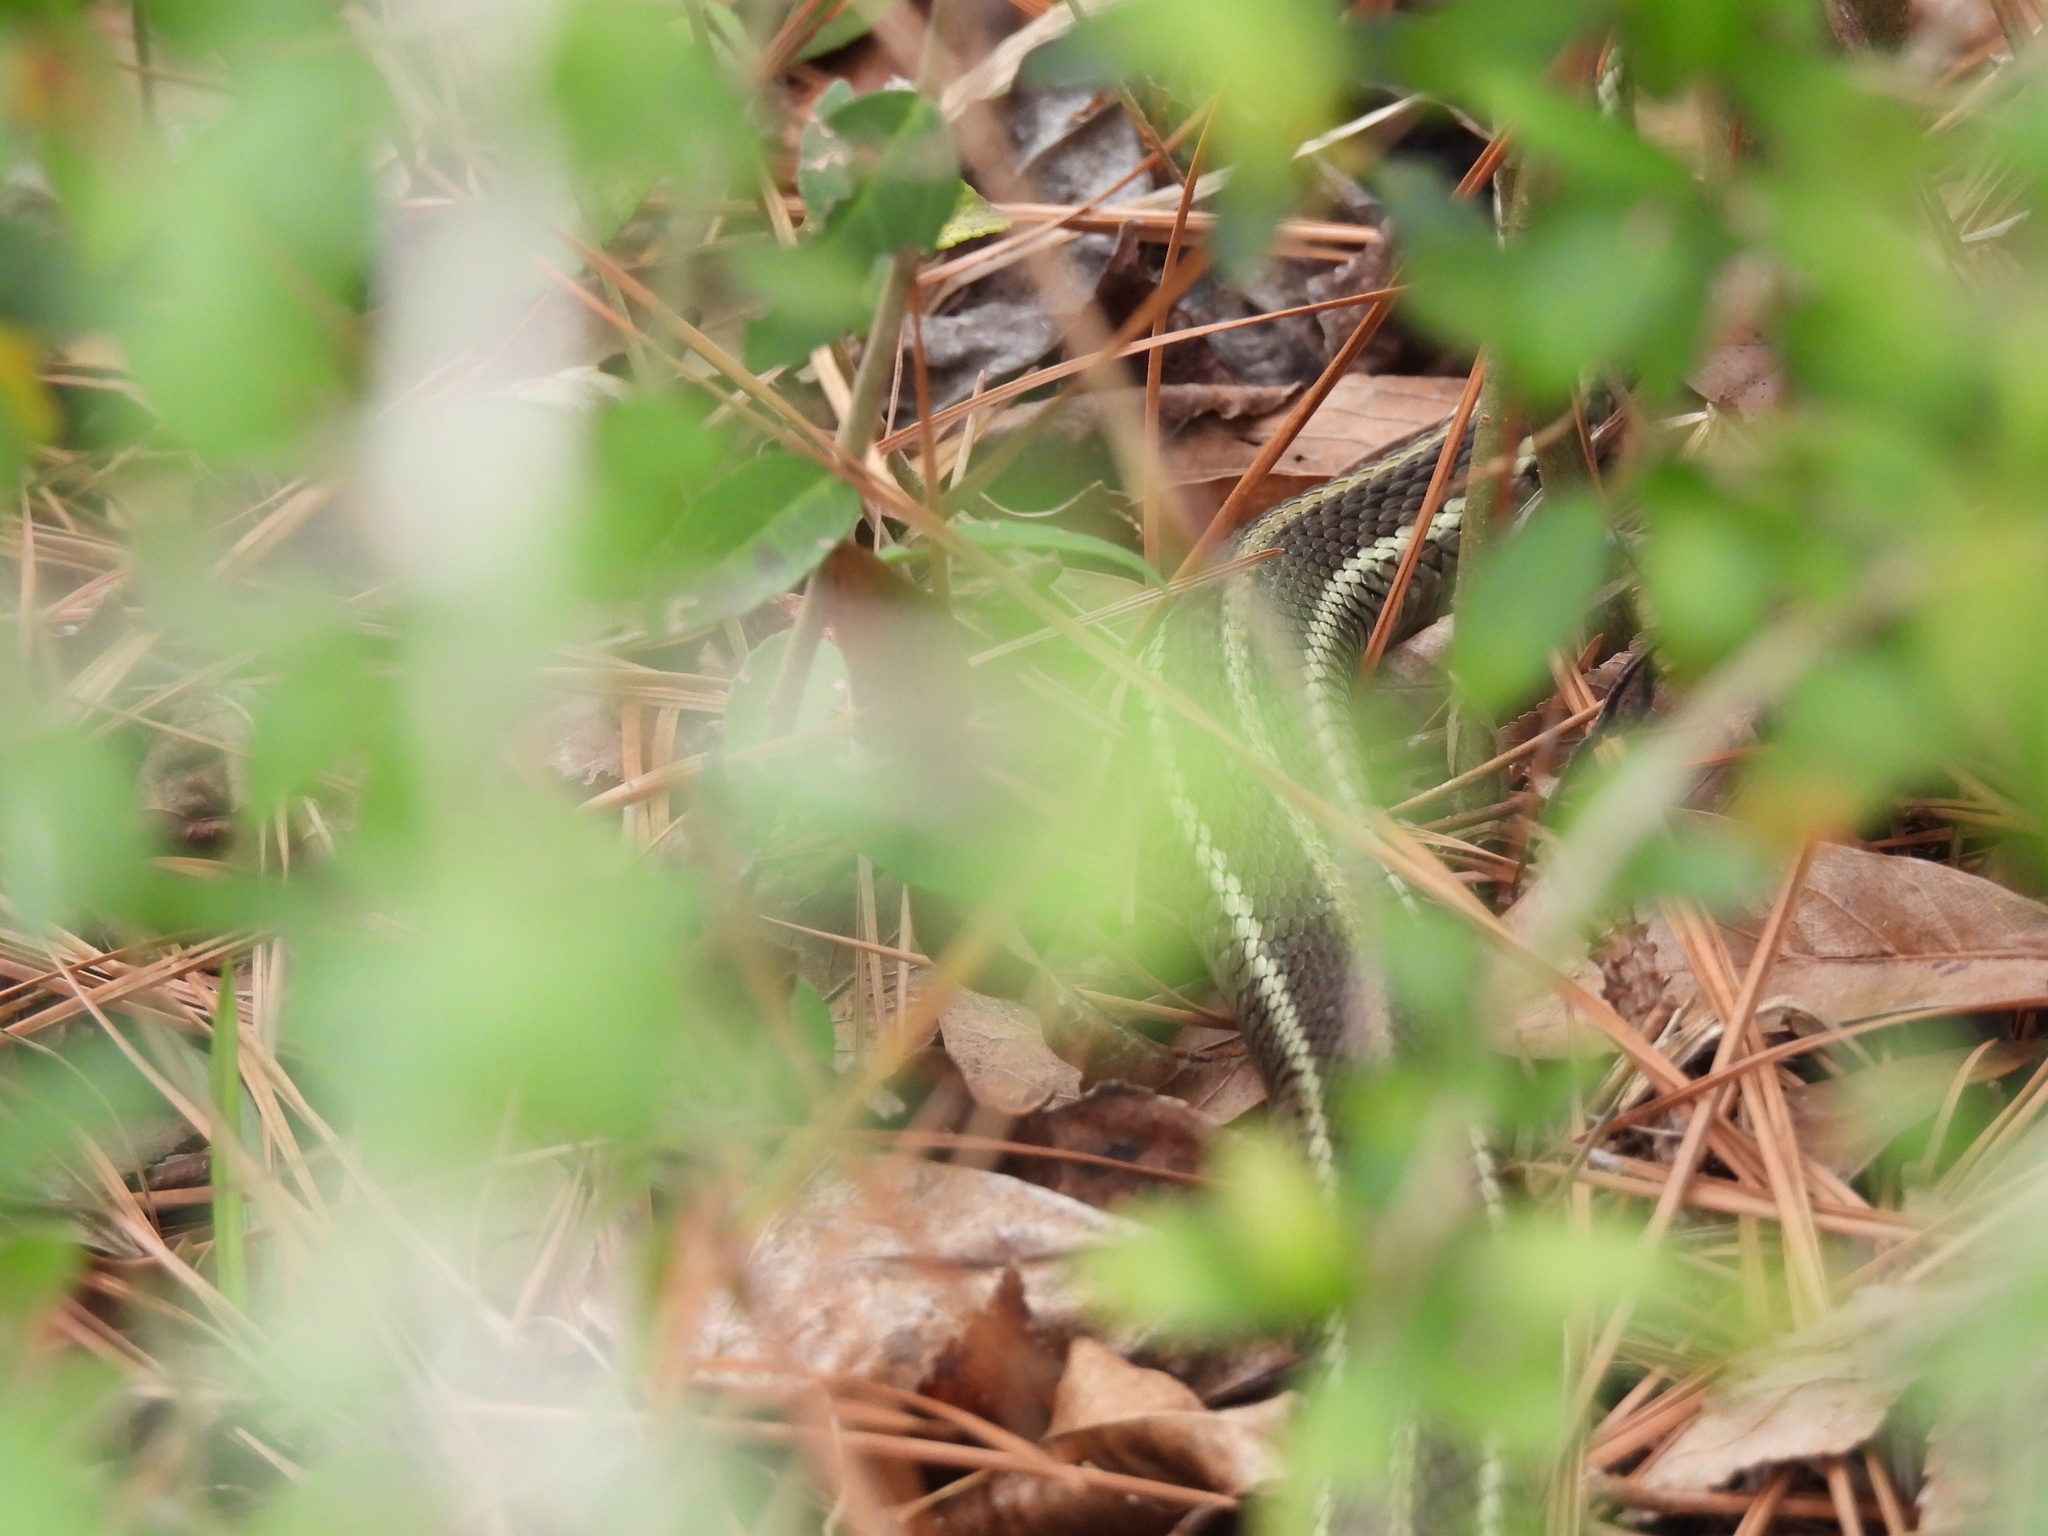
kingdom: Animalia
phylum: Chordata
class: Squamata
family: Colubridae
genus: Thamnophis
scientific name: Thamnophis sirtalis
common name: Common garter snake
